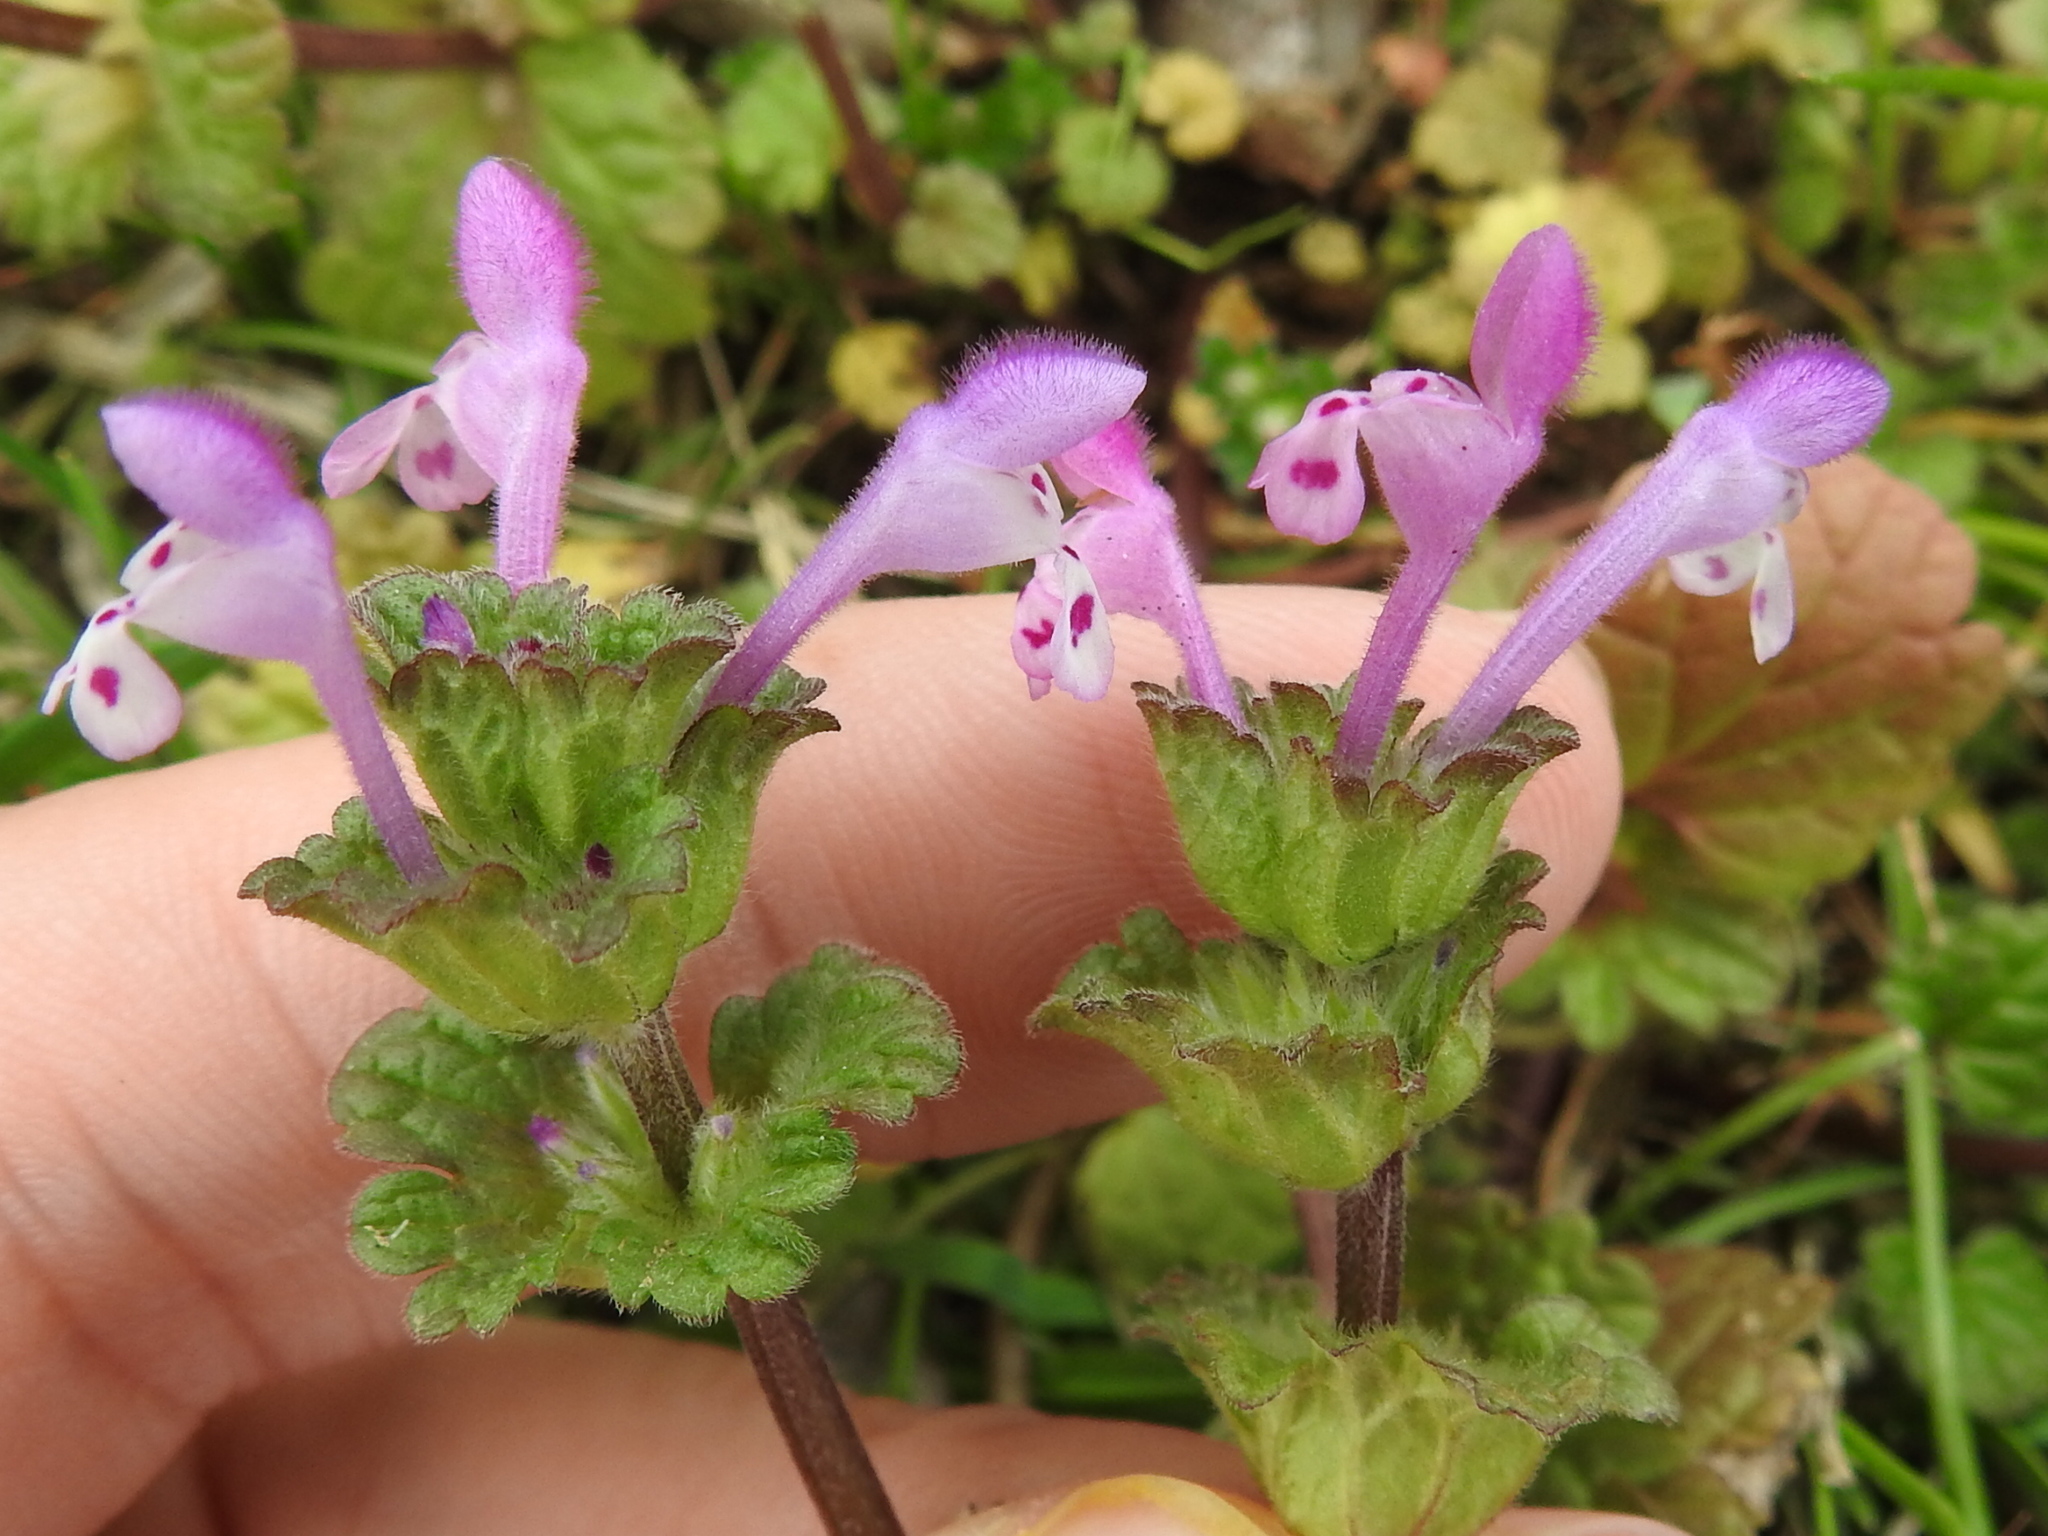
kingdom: Plantae
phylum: Tracheophyta
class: Magnoliopsida
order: Lamiales
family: Lamiaceae
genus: Lamium
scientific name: Lamium amplexicaule
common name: Henbit dead-nettle
